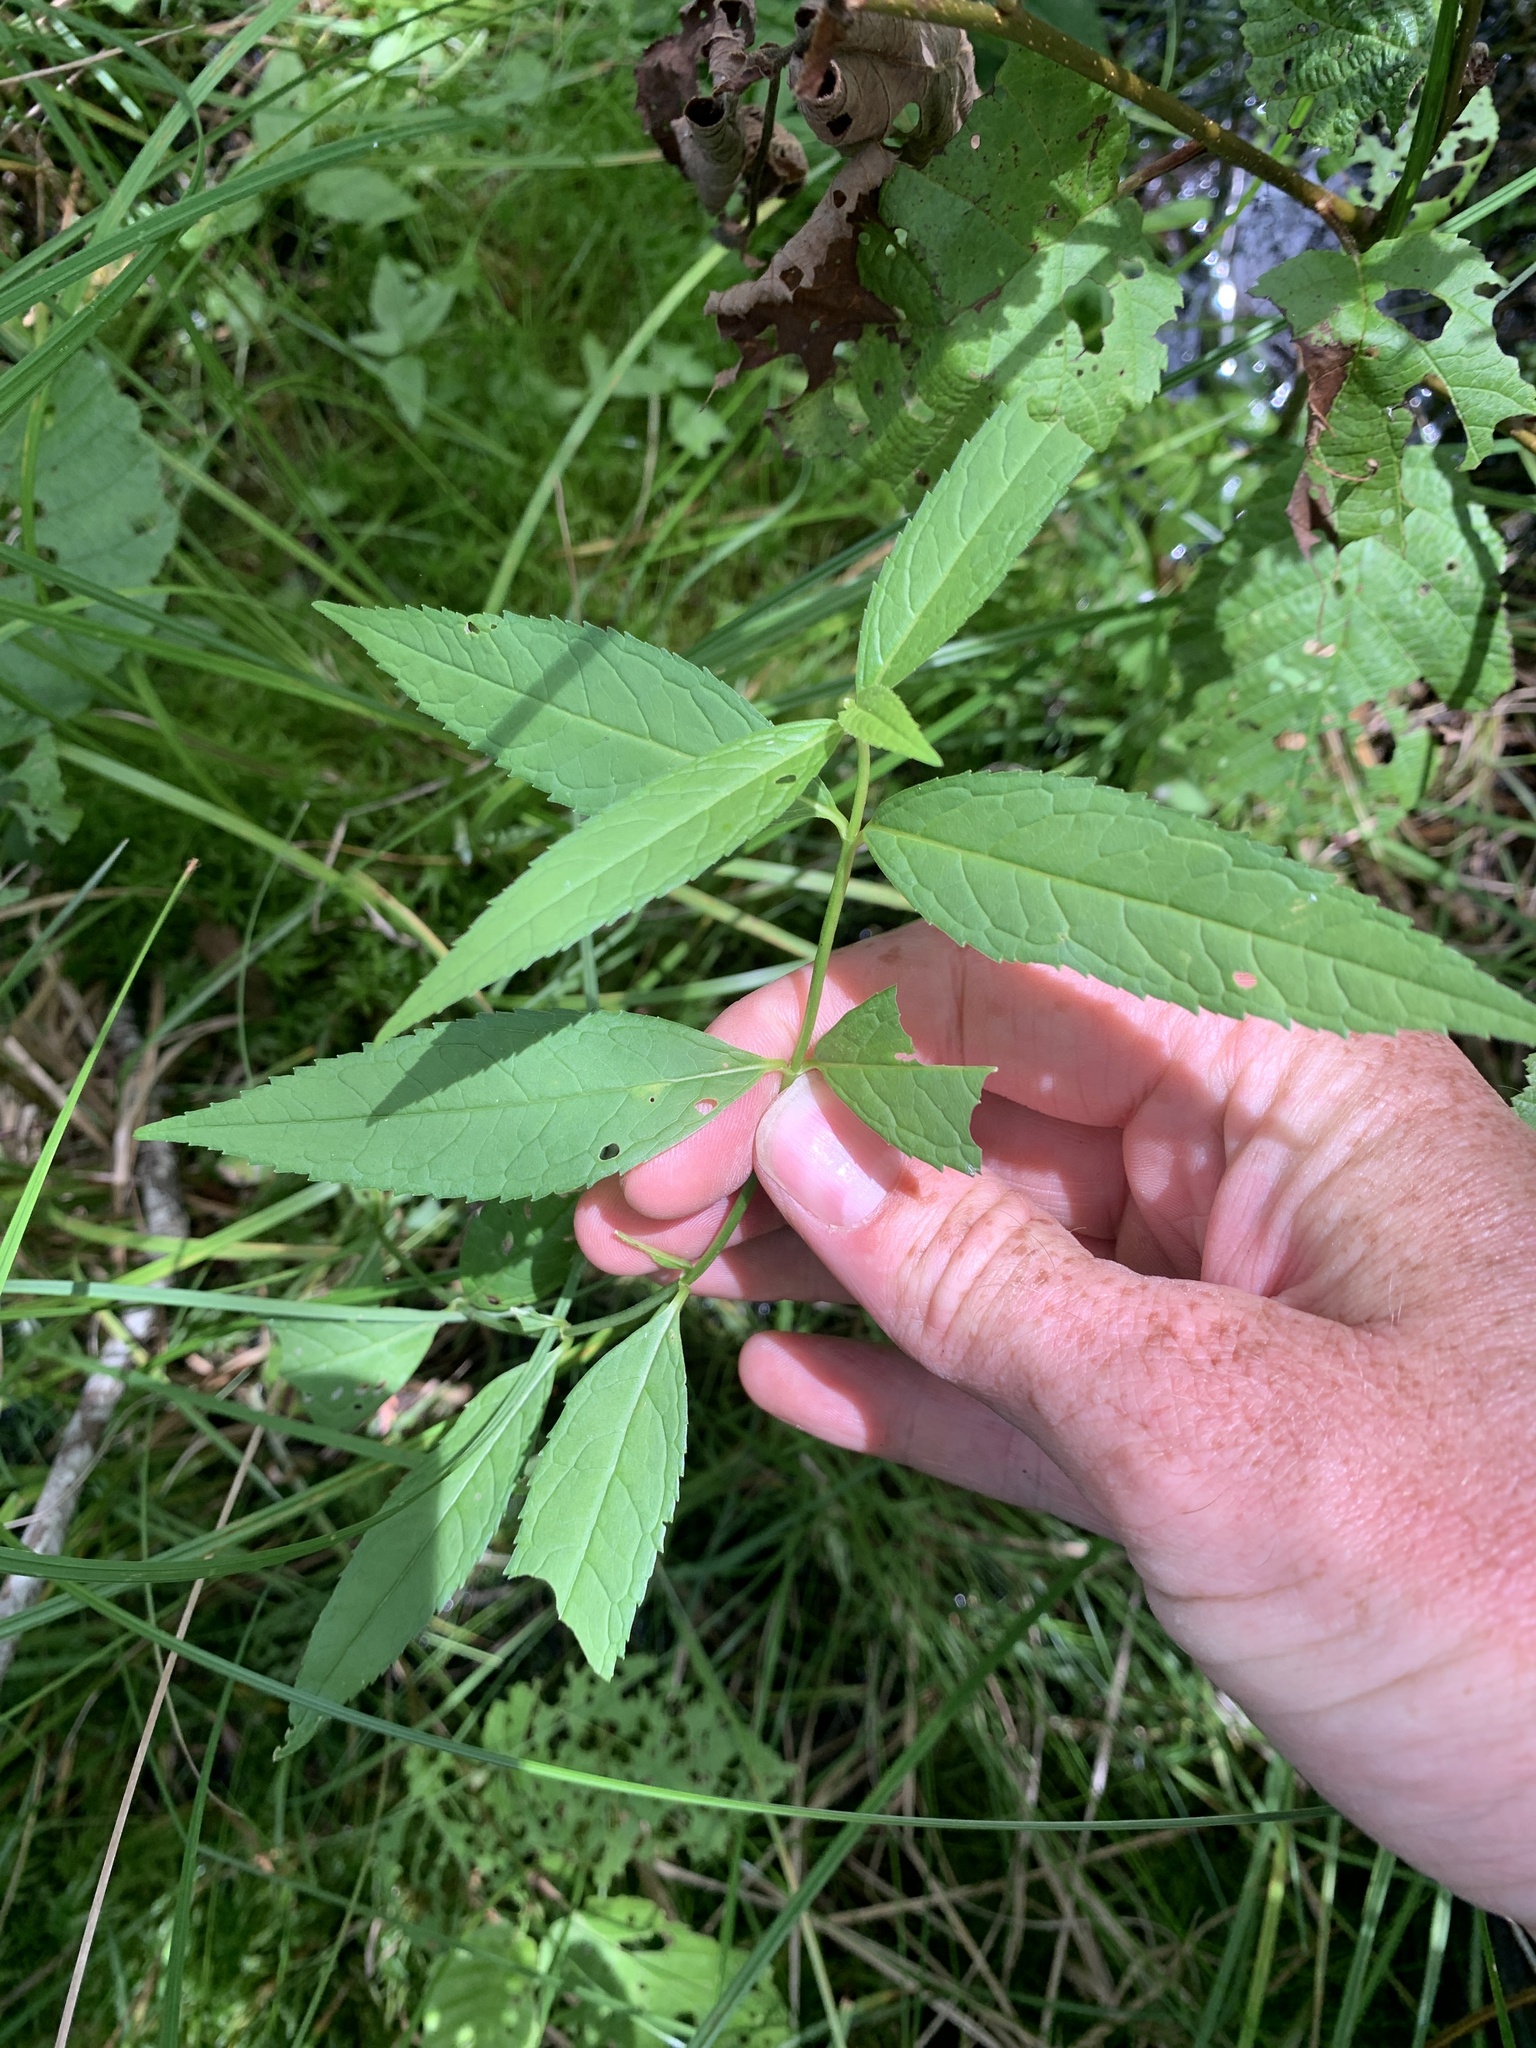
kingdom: Plantae
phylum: Tracheophyta
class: Magnoliopsida
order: Lamiales
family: Plantaginaceae
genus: Chelone
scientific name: Chelone glabra
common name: Snakehead
